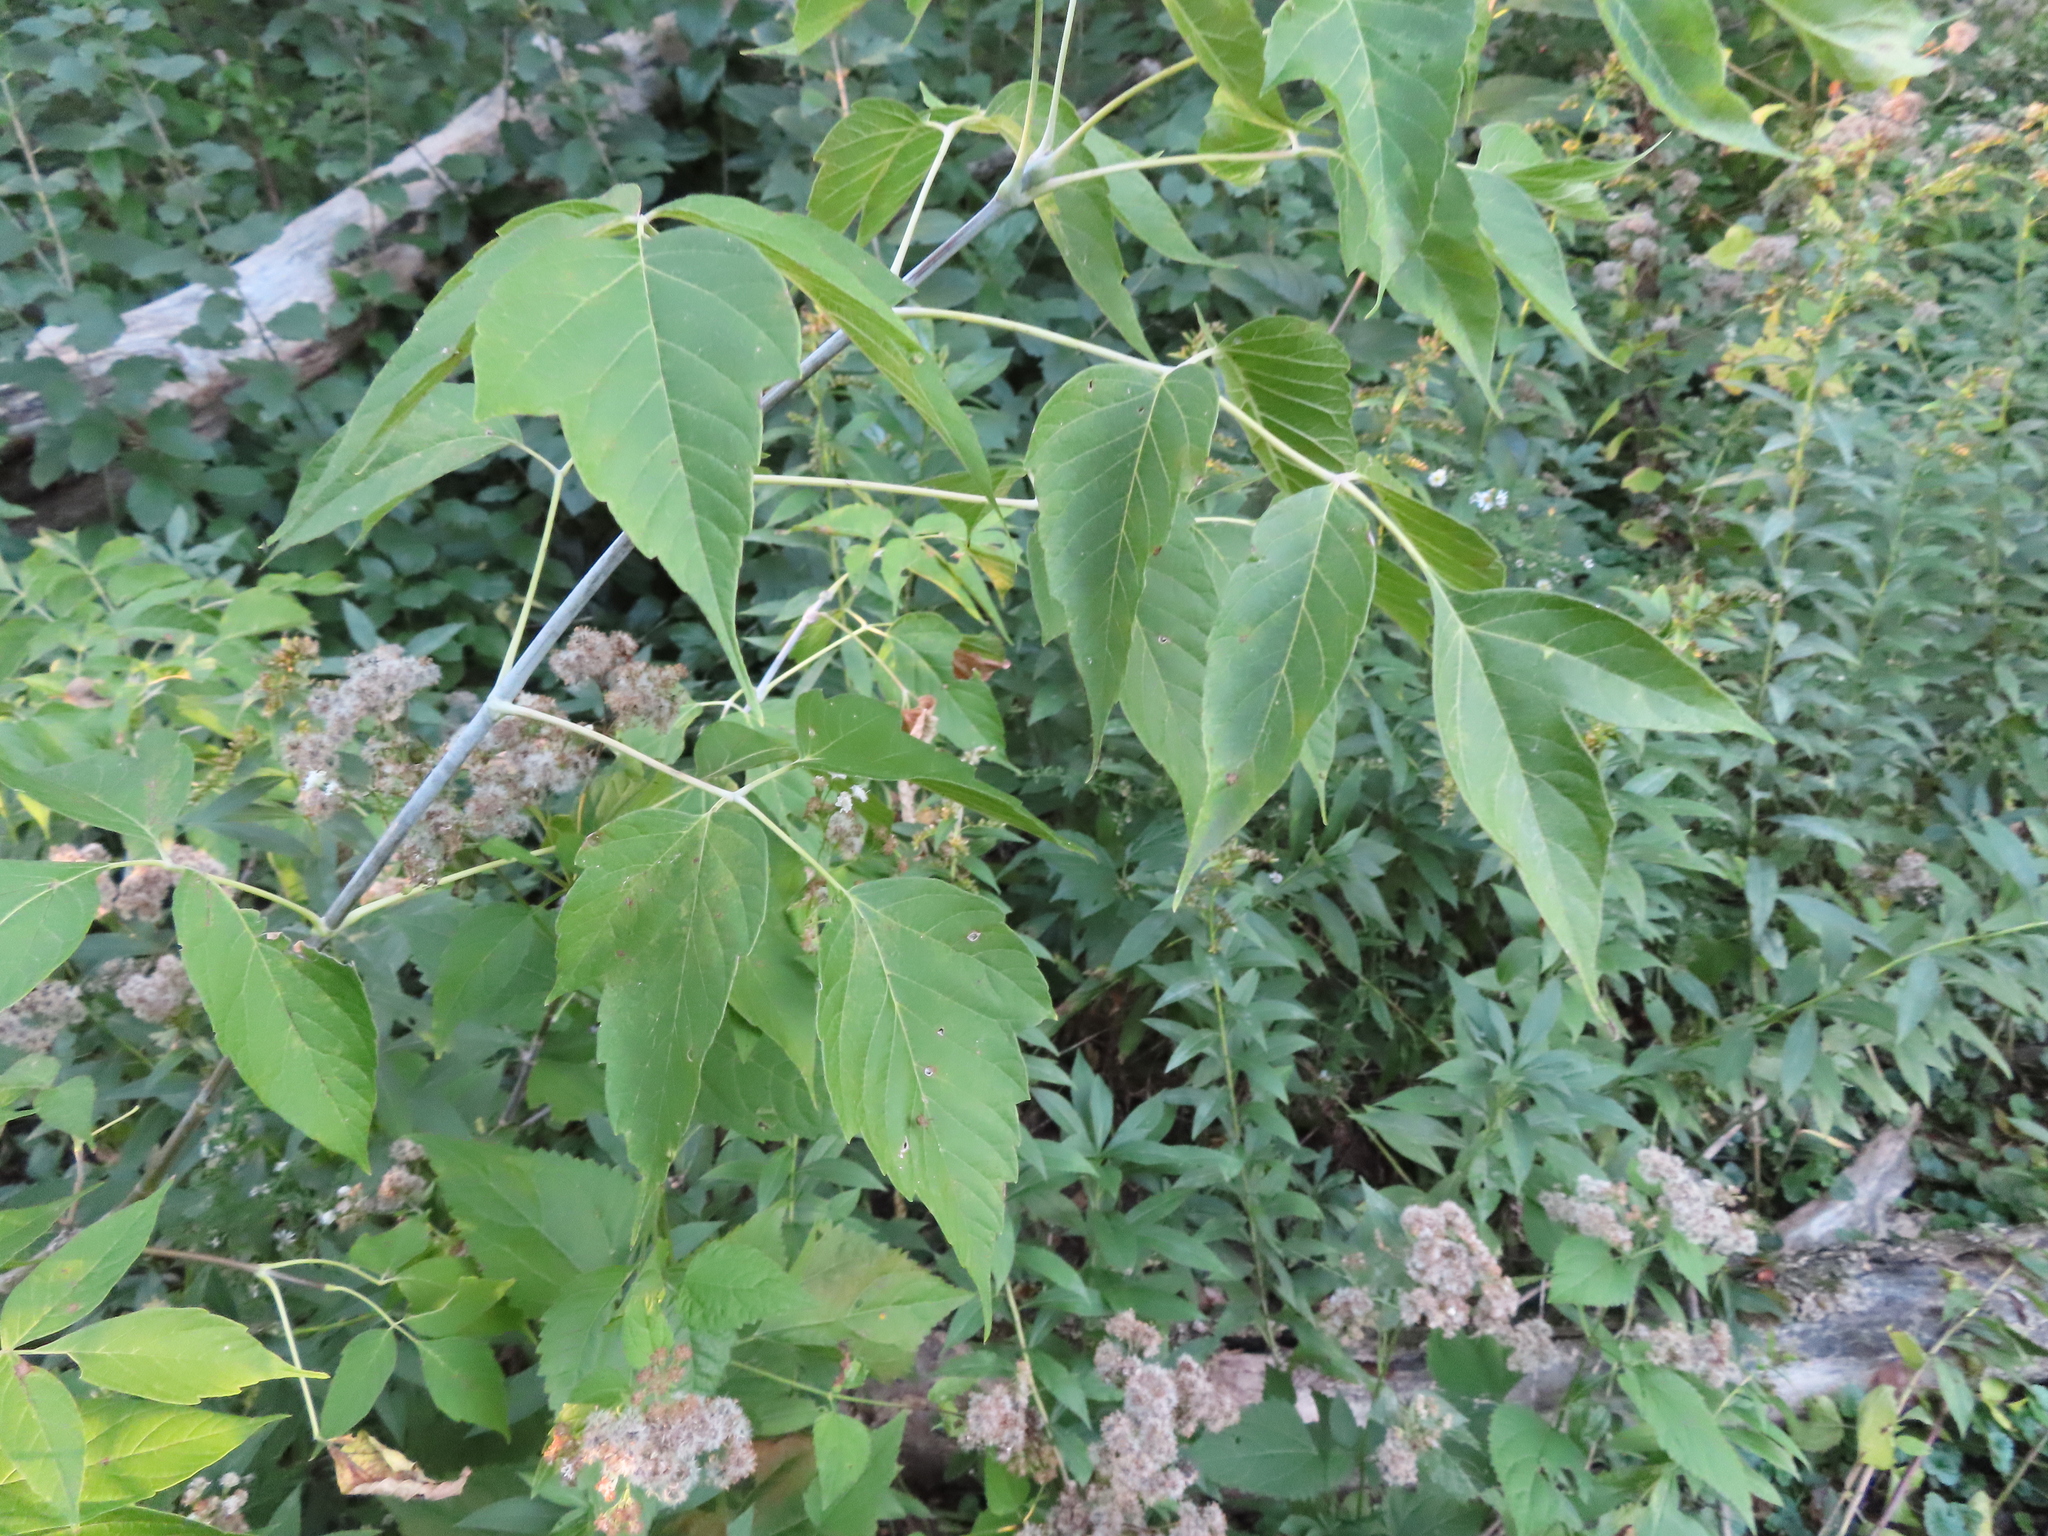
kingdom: Plantae
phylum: Tracheophyta
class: Magnoliopsida
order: Sapindales
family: Sapindaceae
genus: Acer
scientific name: Acer negundo
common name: Ashleaf maple
